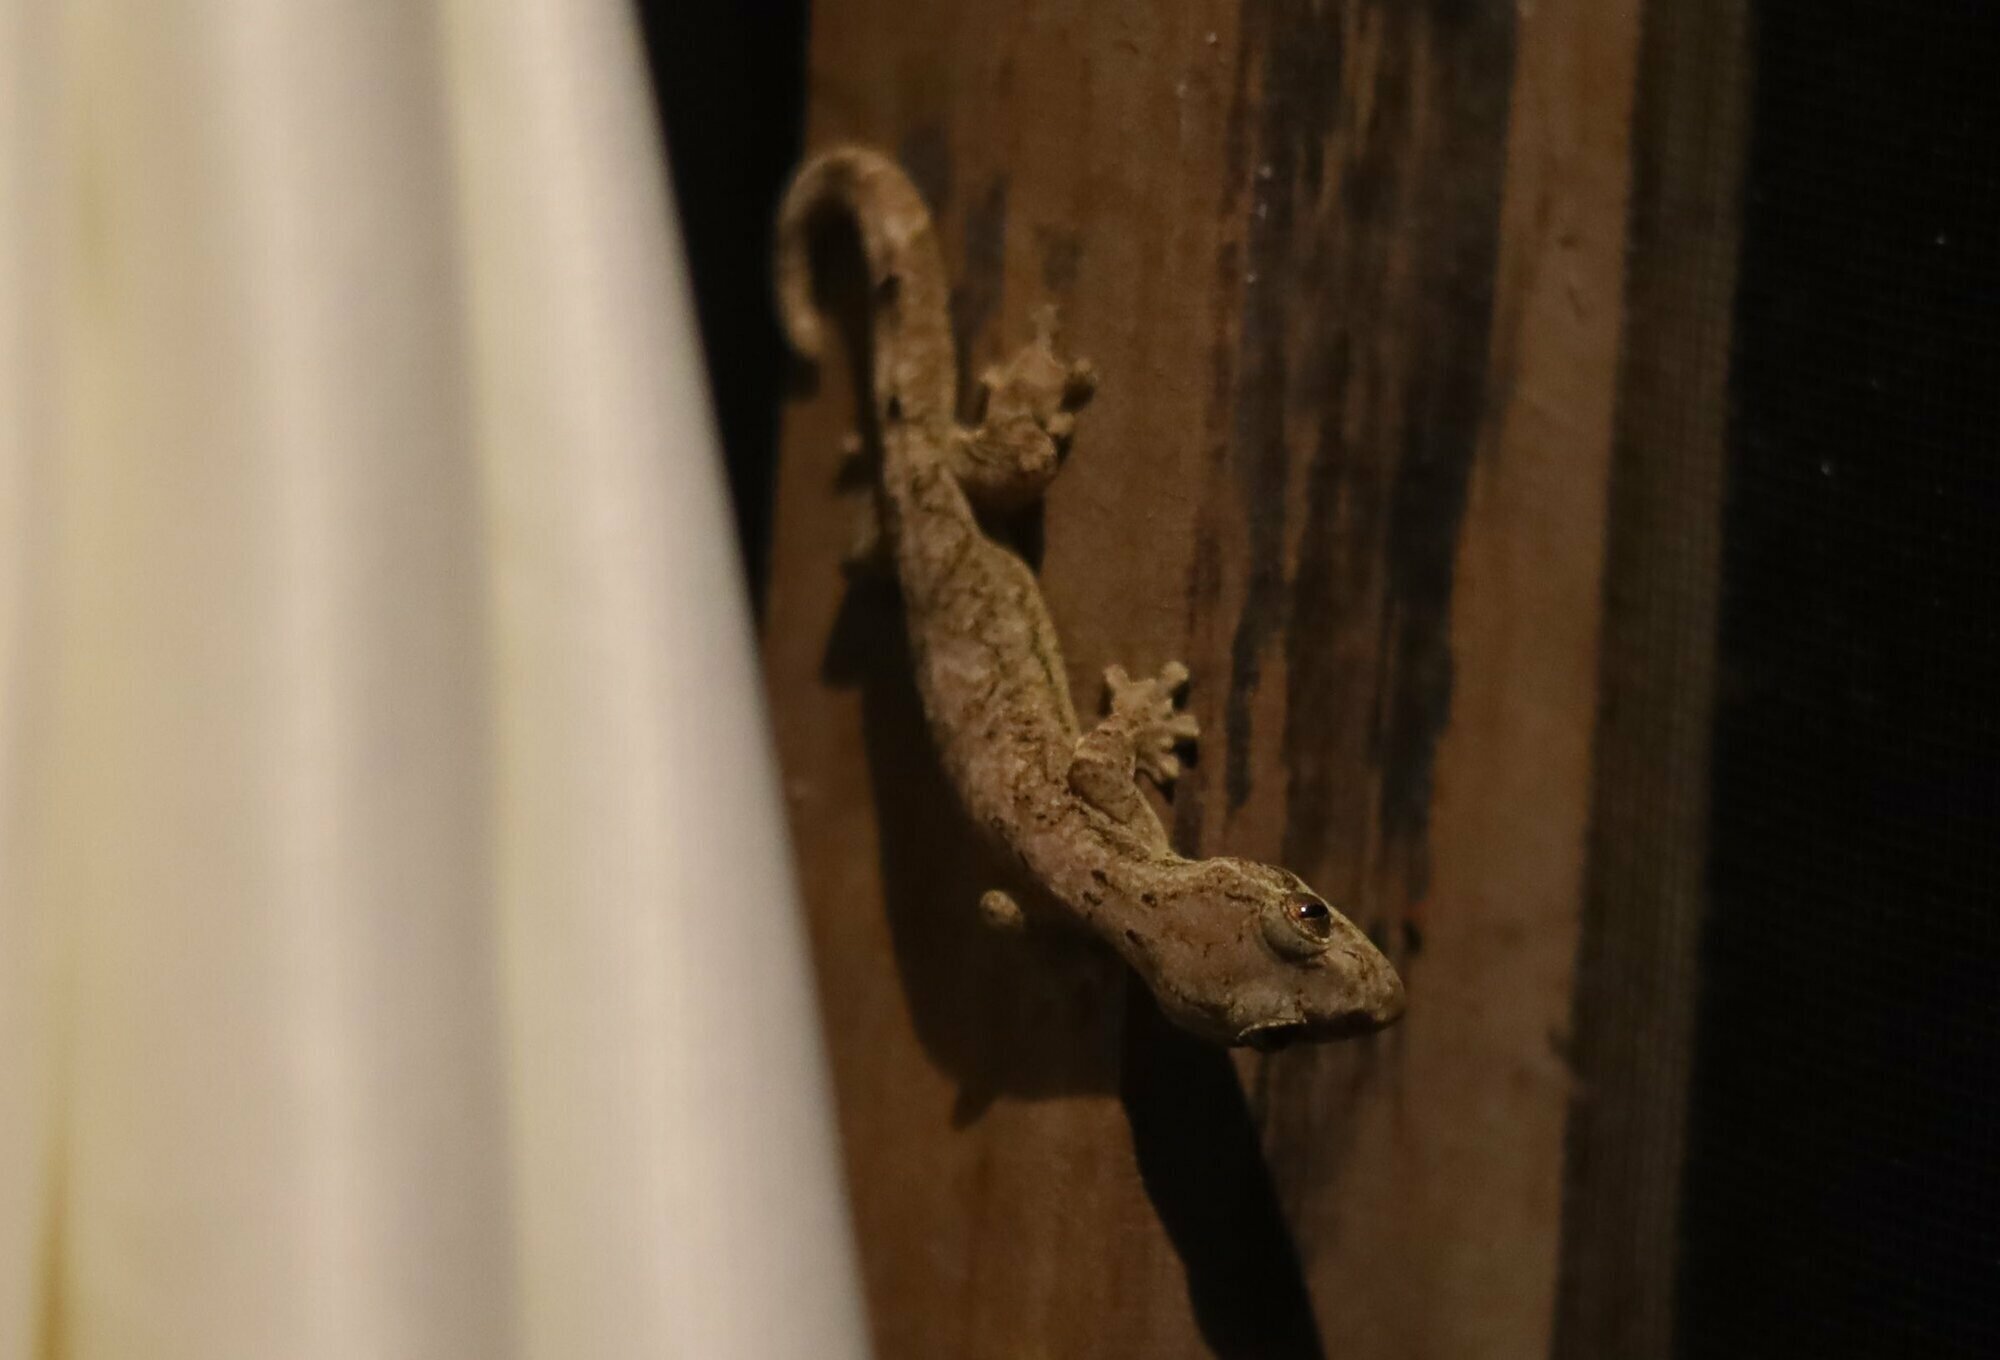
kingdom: Animalia
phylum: Chordata
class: Squamata
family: Phyllodactylidae
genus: Thecadactylus
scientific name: Thecadactylus solimoensis
